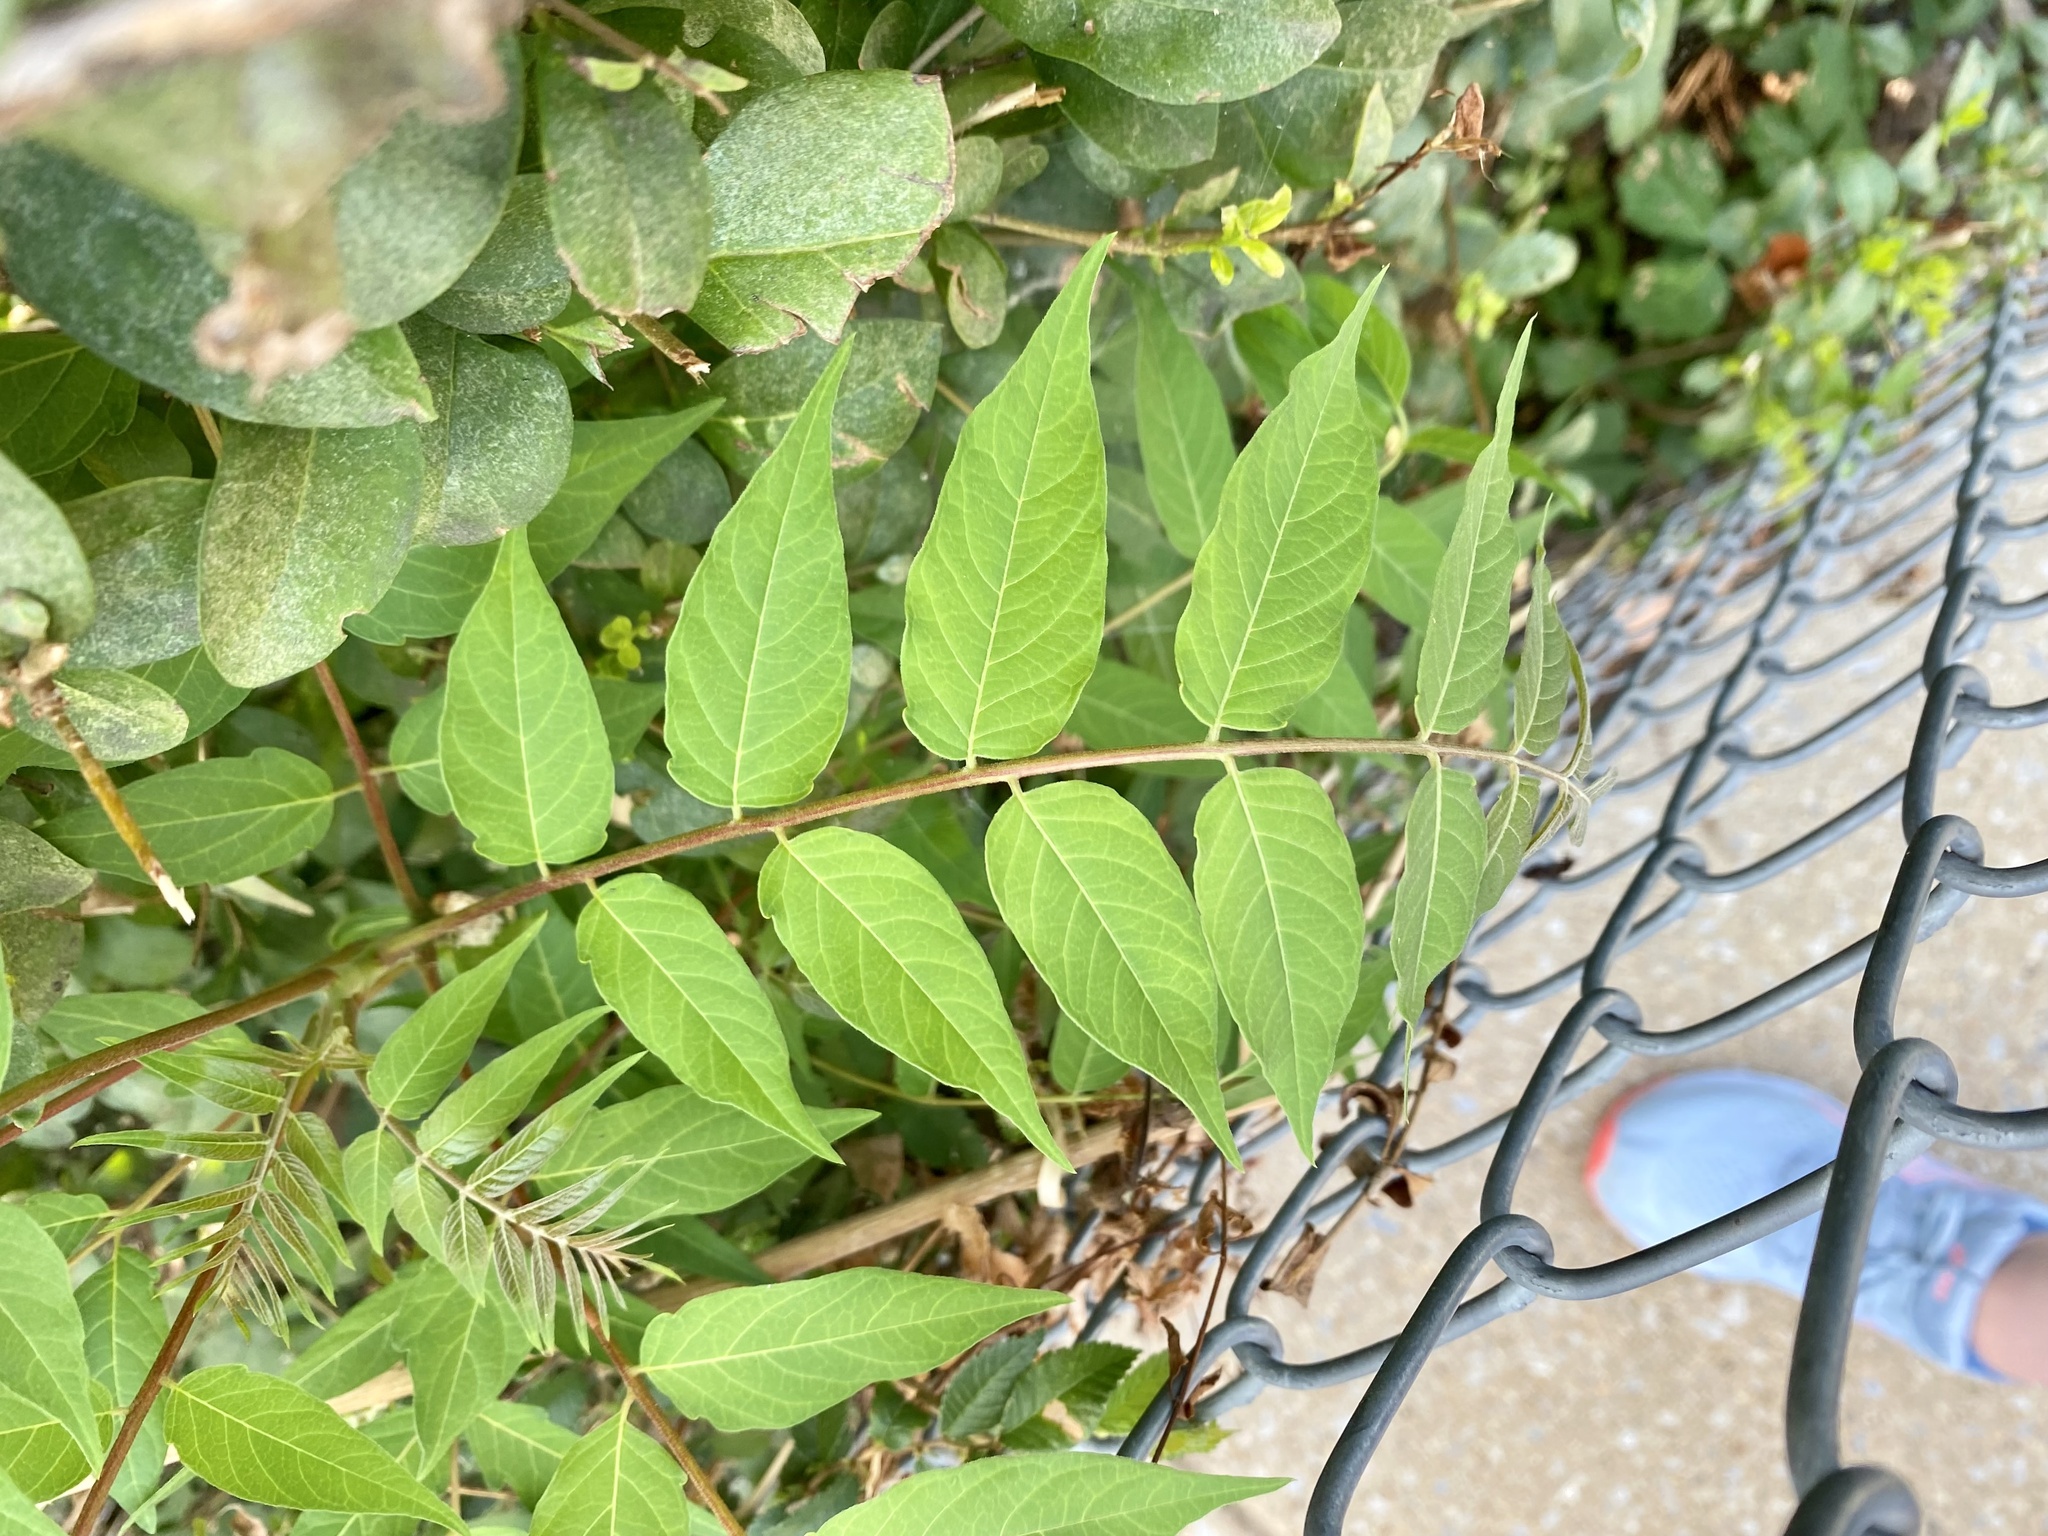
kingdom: Plantae
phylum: Tracheophyta
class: Magnoliopsida
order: Sapindales
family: Simaroubaceae
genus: Ailanthus
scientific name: Ailanthus altissima
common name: Tree-of-heaven
